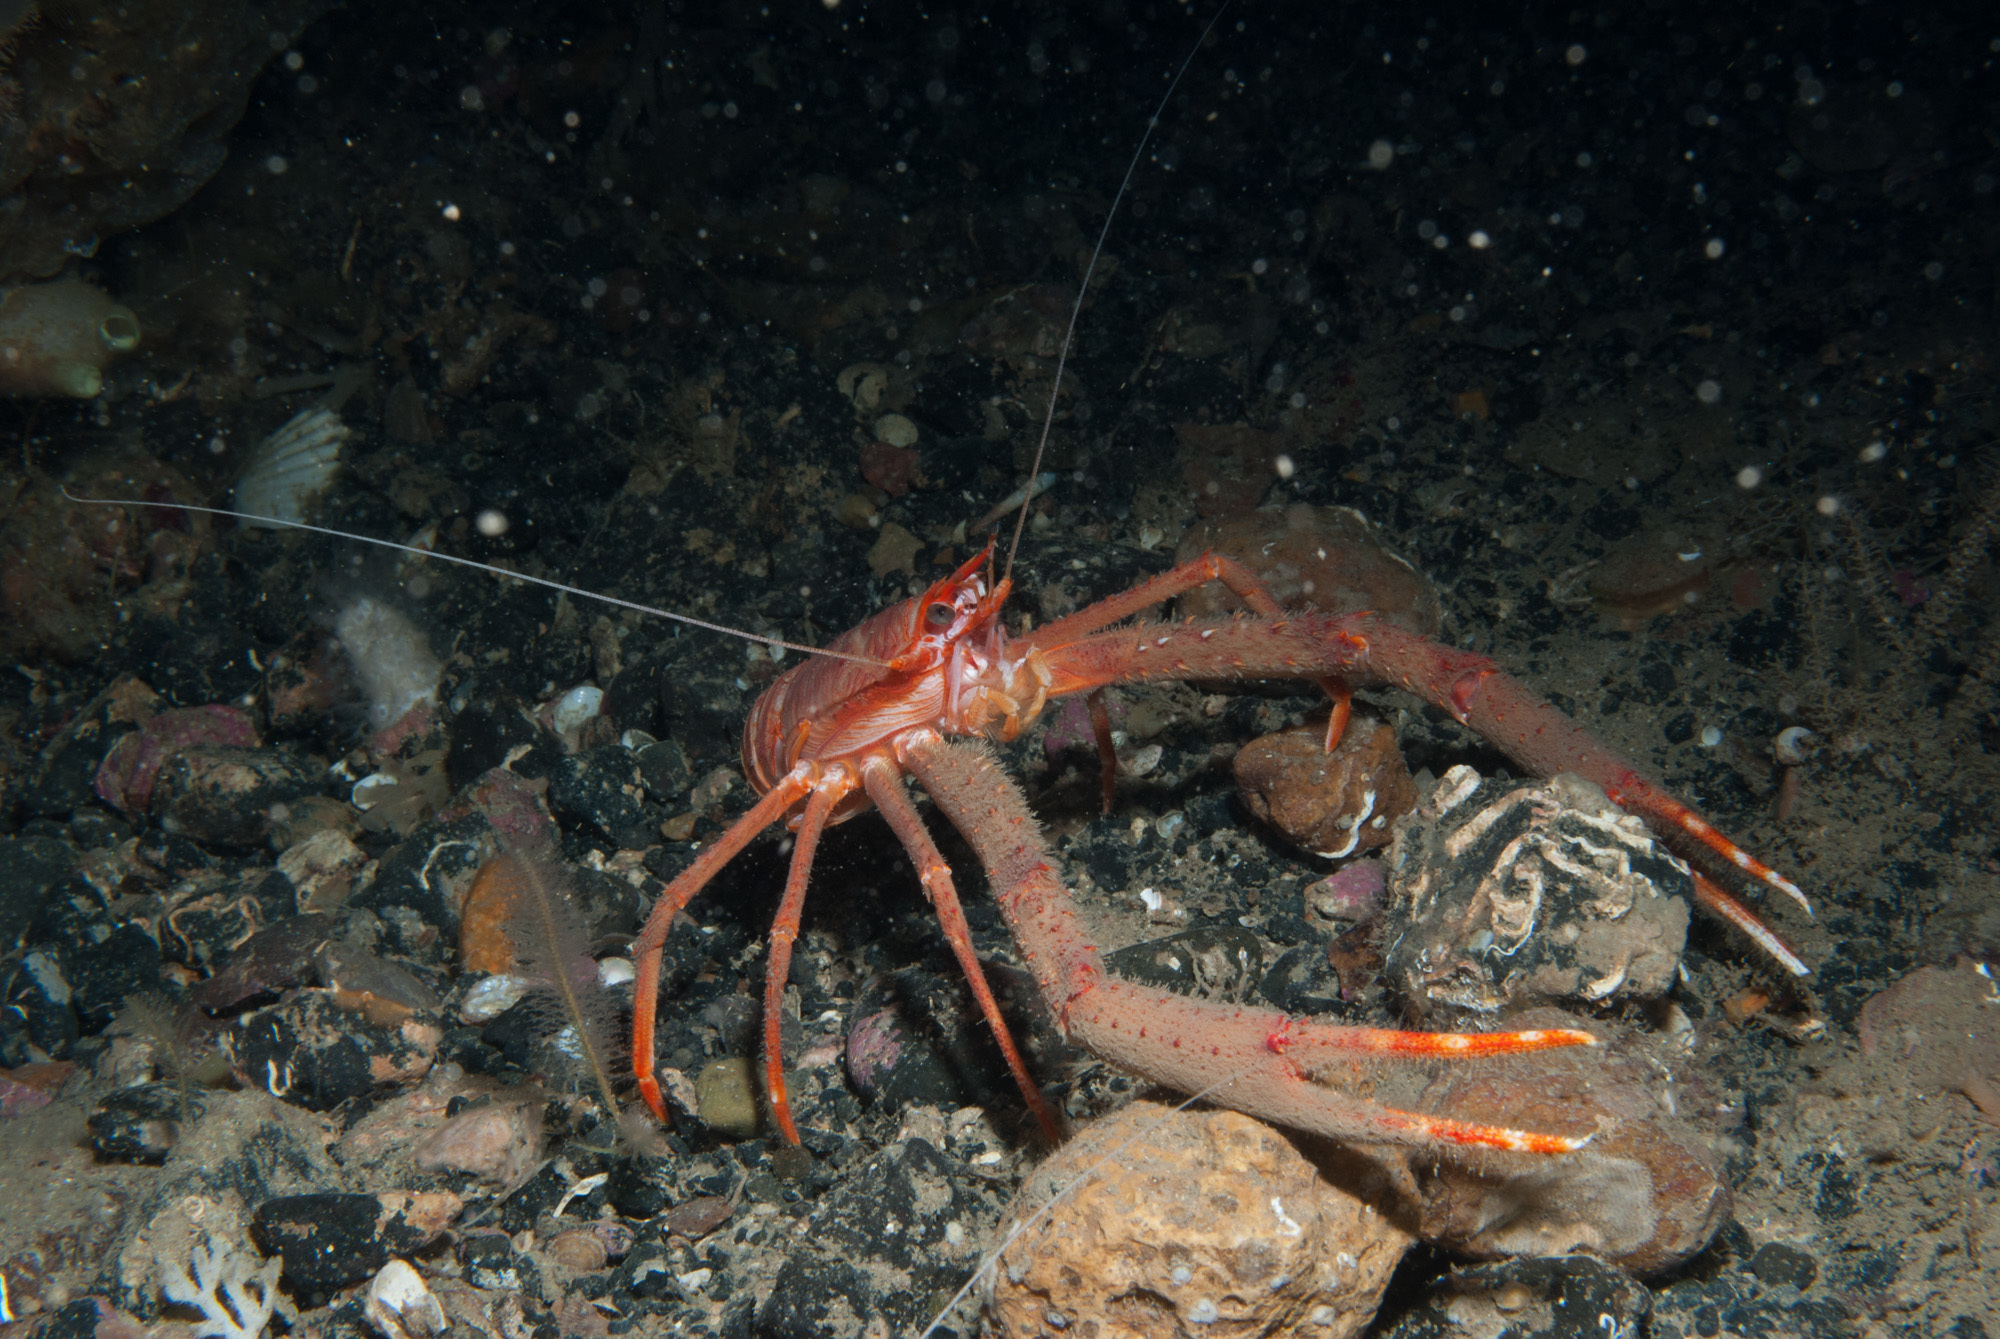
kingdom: Animalia
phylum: Arthropoda
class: Malacostraca
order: Decapoda
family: Munididae
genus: Munida
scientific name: Munida rugosa
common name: Rugose squat lobster
